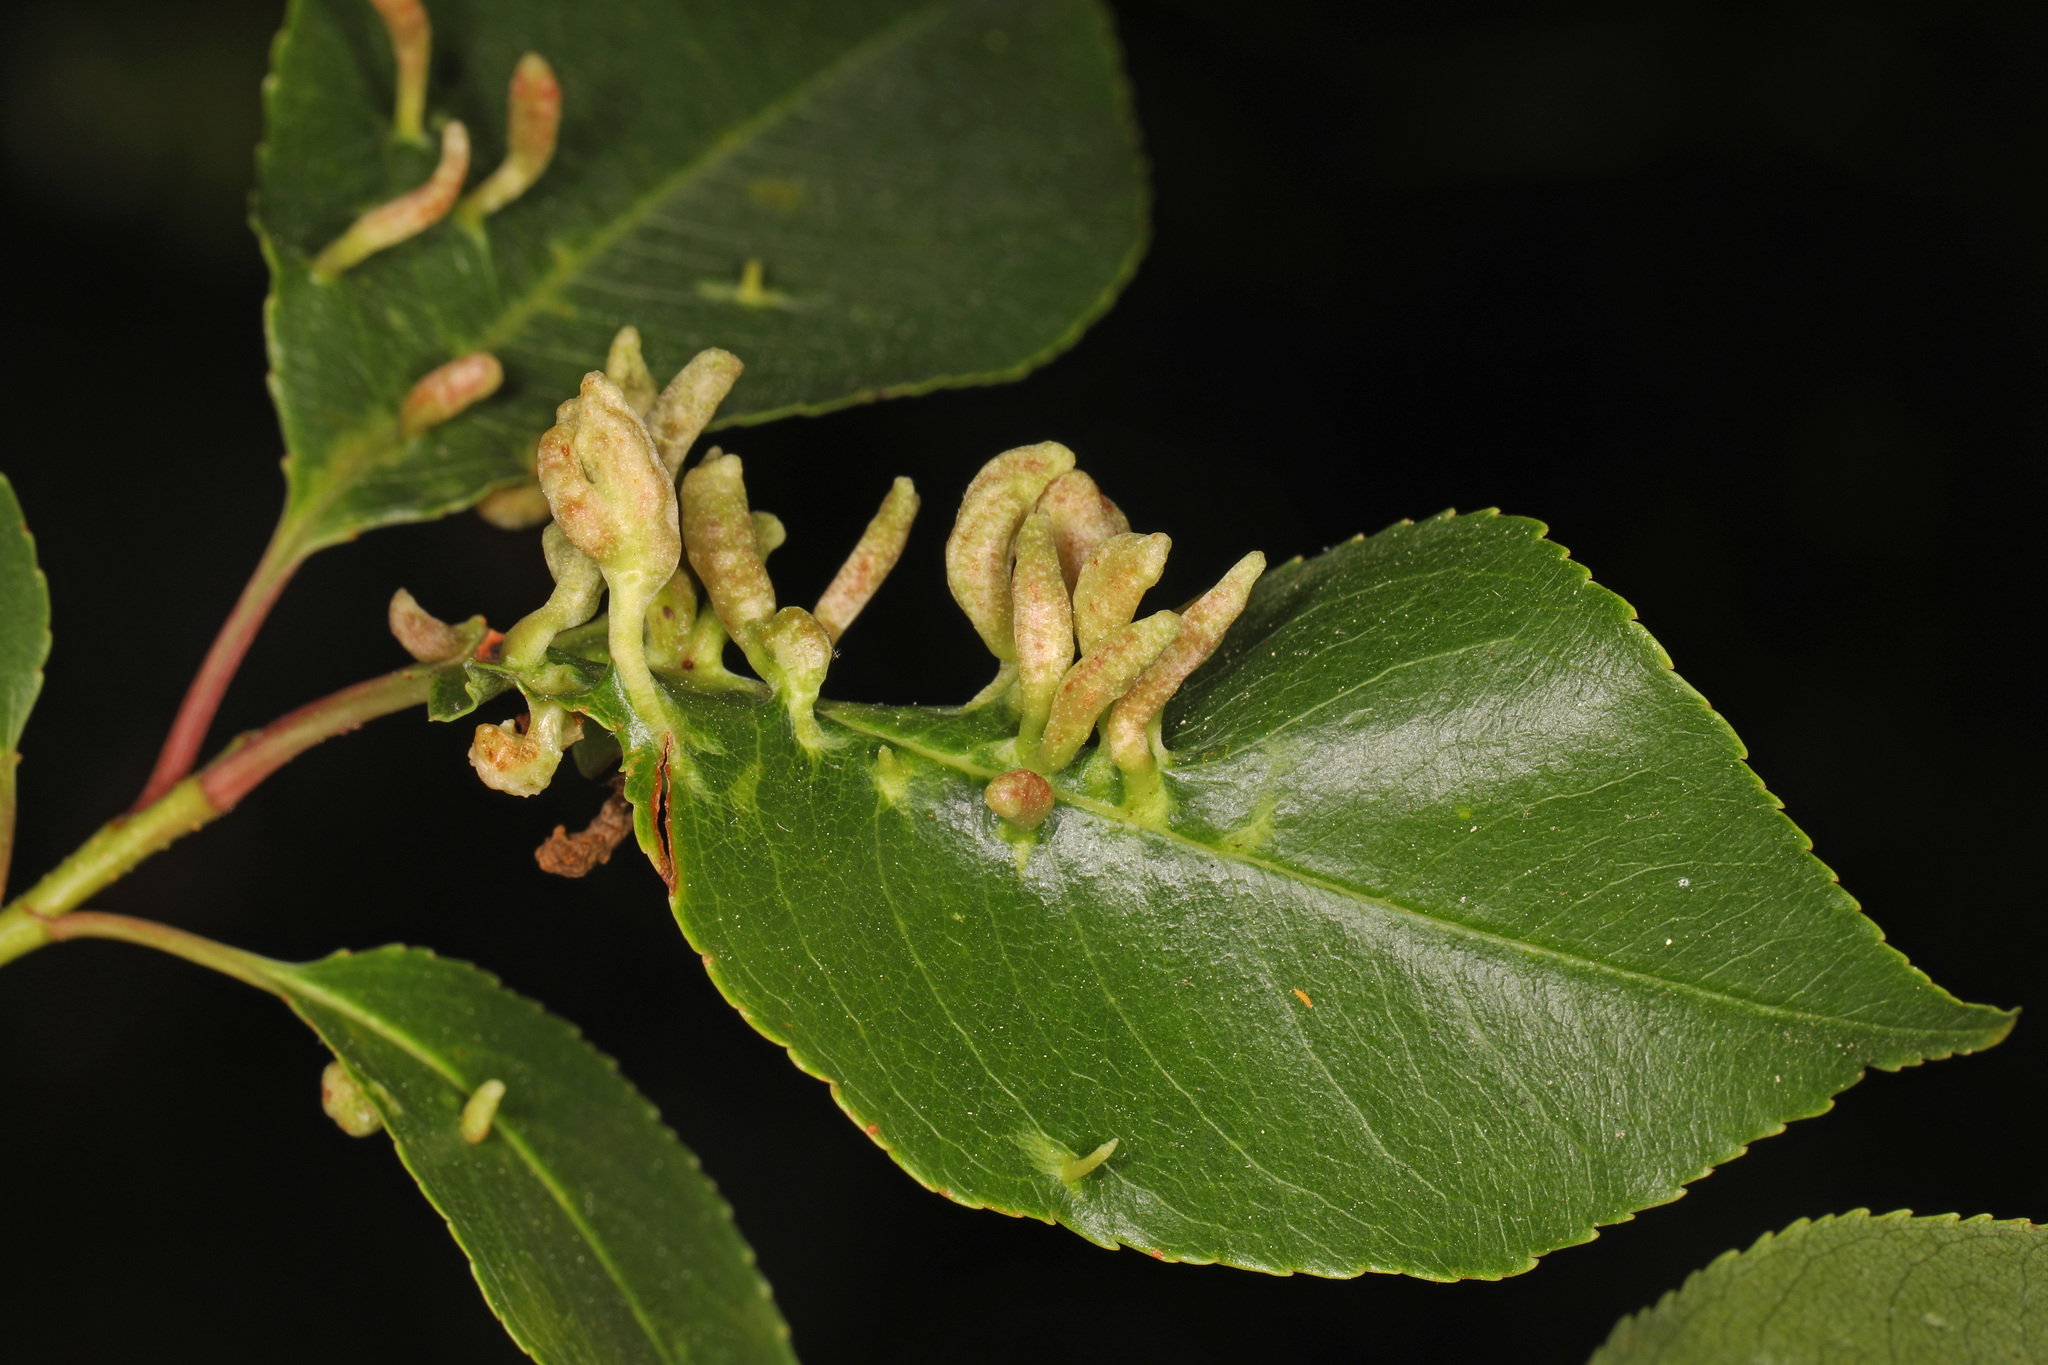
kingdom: Animalia
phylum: Arthropoda
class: Arachnida
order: Trombidiformes
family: Eriophyidae
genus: Eriophyes
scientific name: Eriophyes
